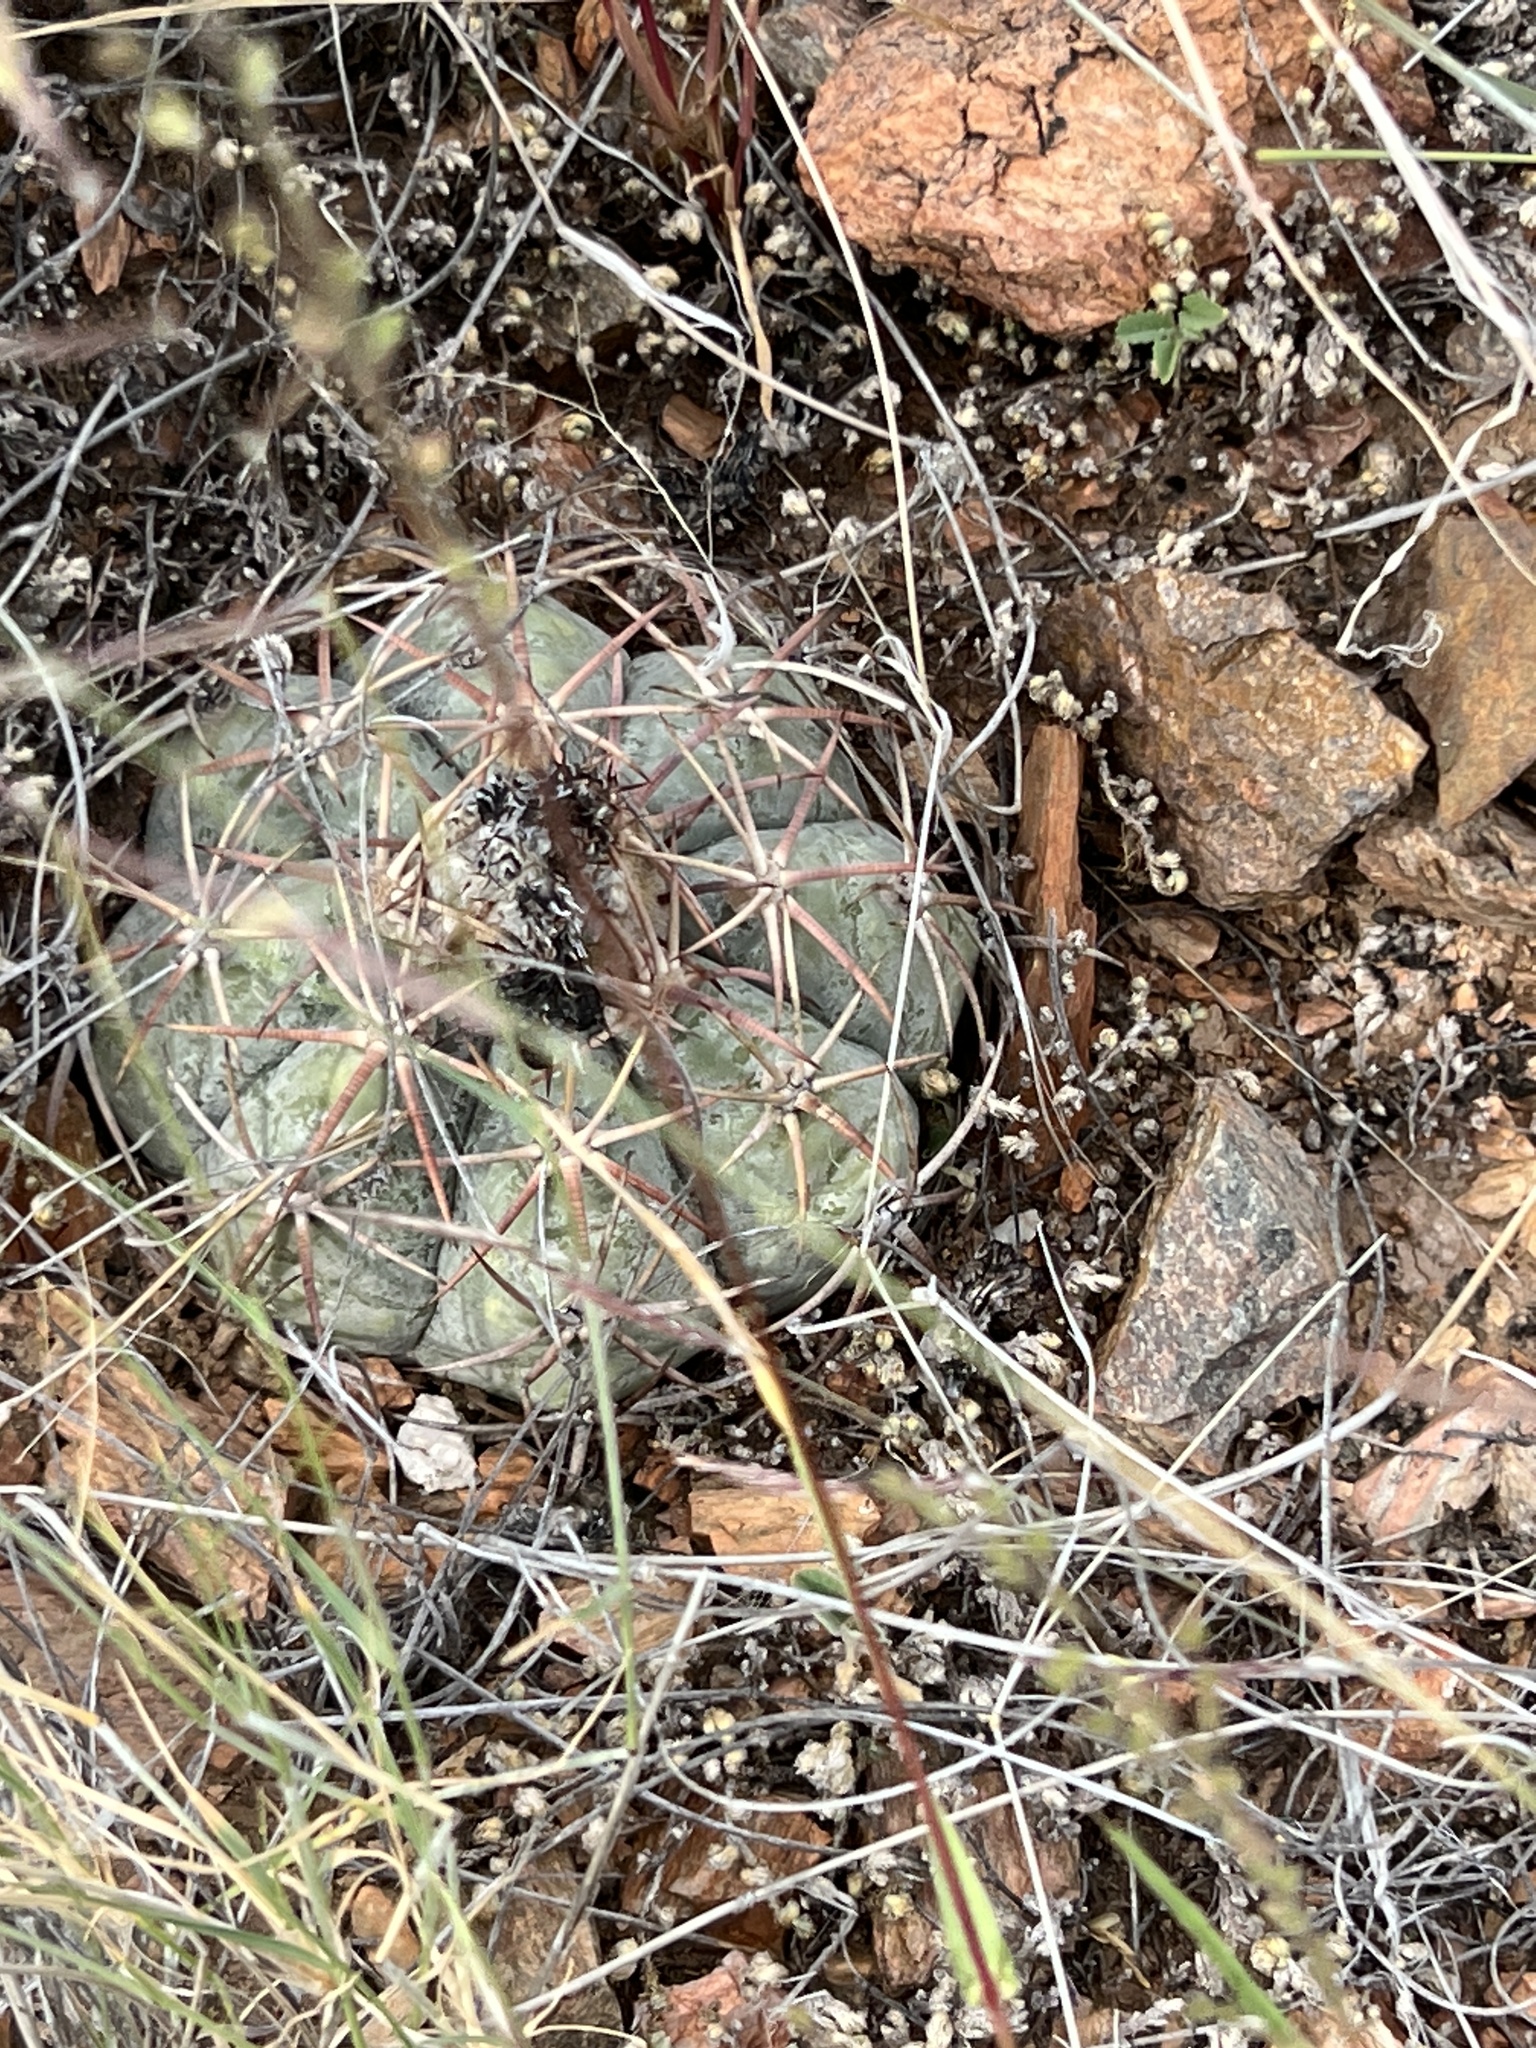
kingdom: Plantae
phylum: Tracheophyta
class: Magnoliopsida
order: Caryophyllales
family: Cactaceae
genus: Echinocactus
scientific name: Echinocactus horizonthalonius
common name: Devilshead
